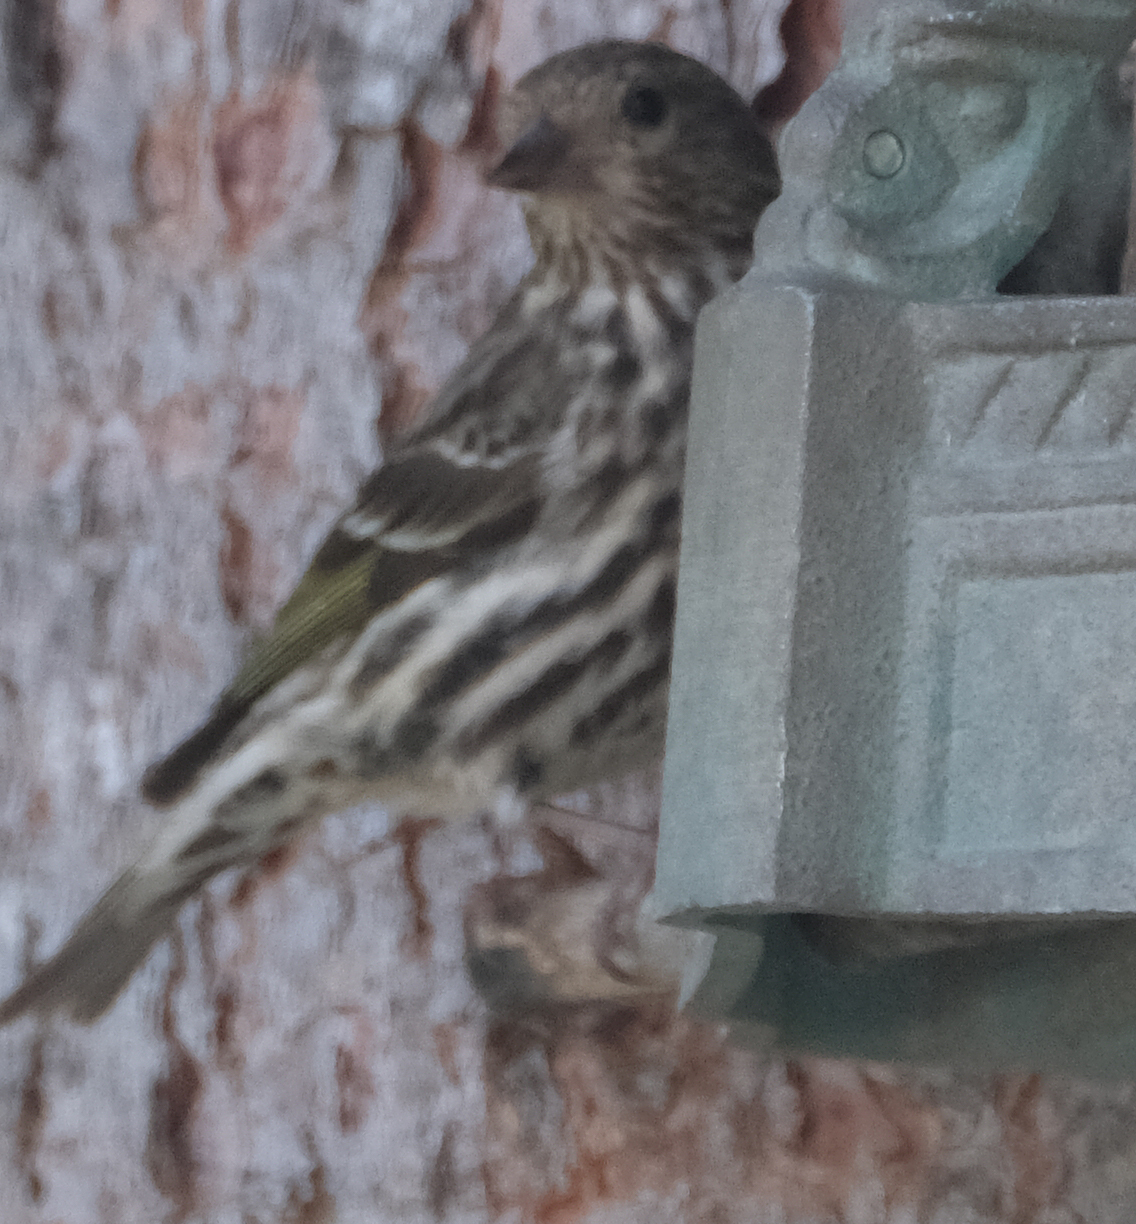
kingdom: Animalia
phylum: Chordata
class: Aves
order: Passeriformes
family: Fringillidae
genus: Spinus
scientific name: Spinus pinus
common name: Pine siskin
